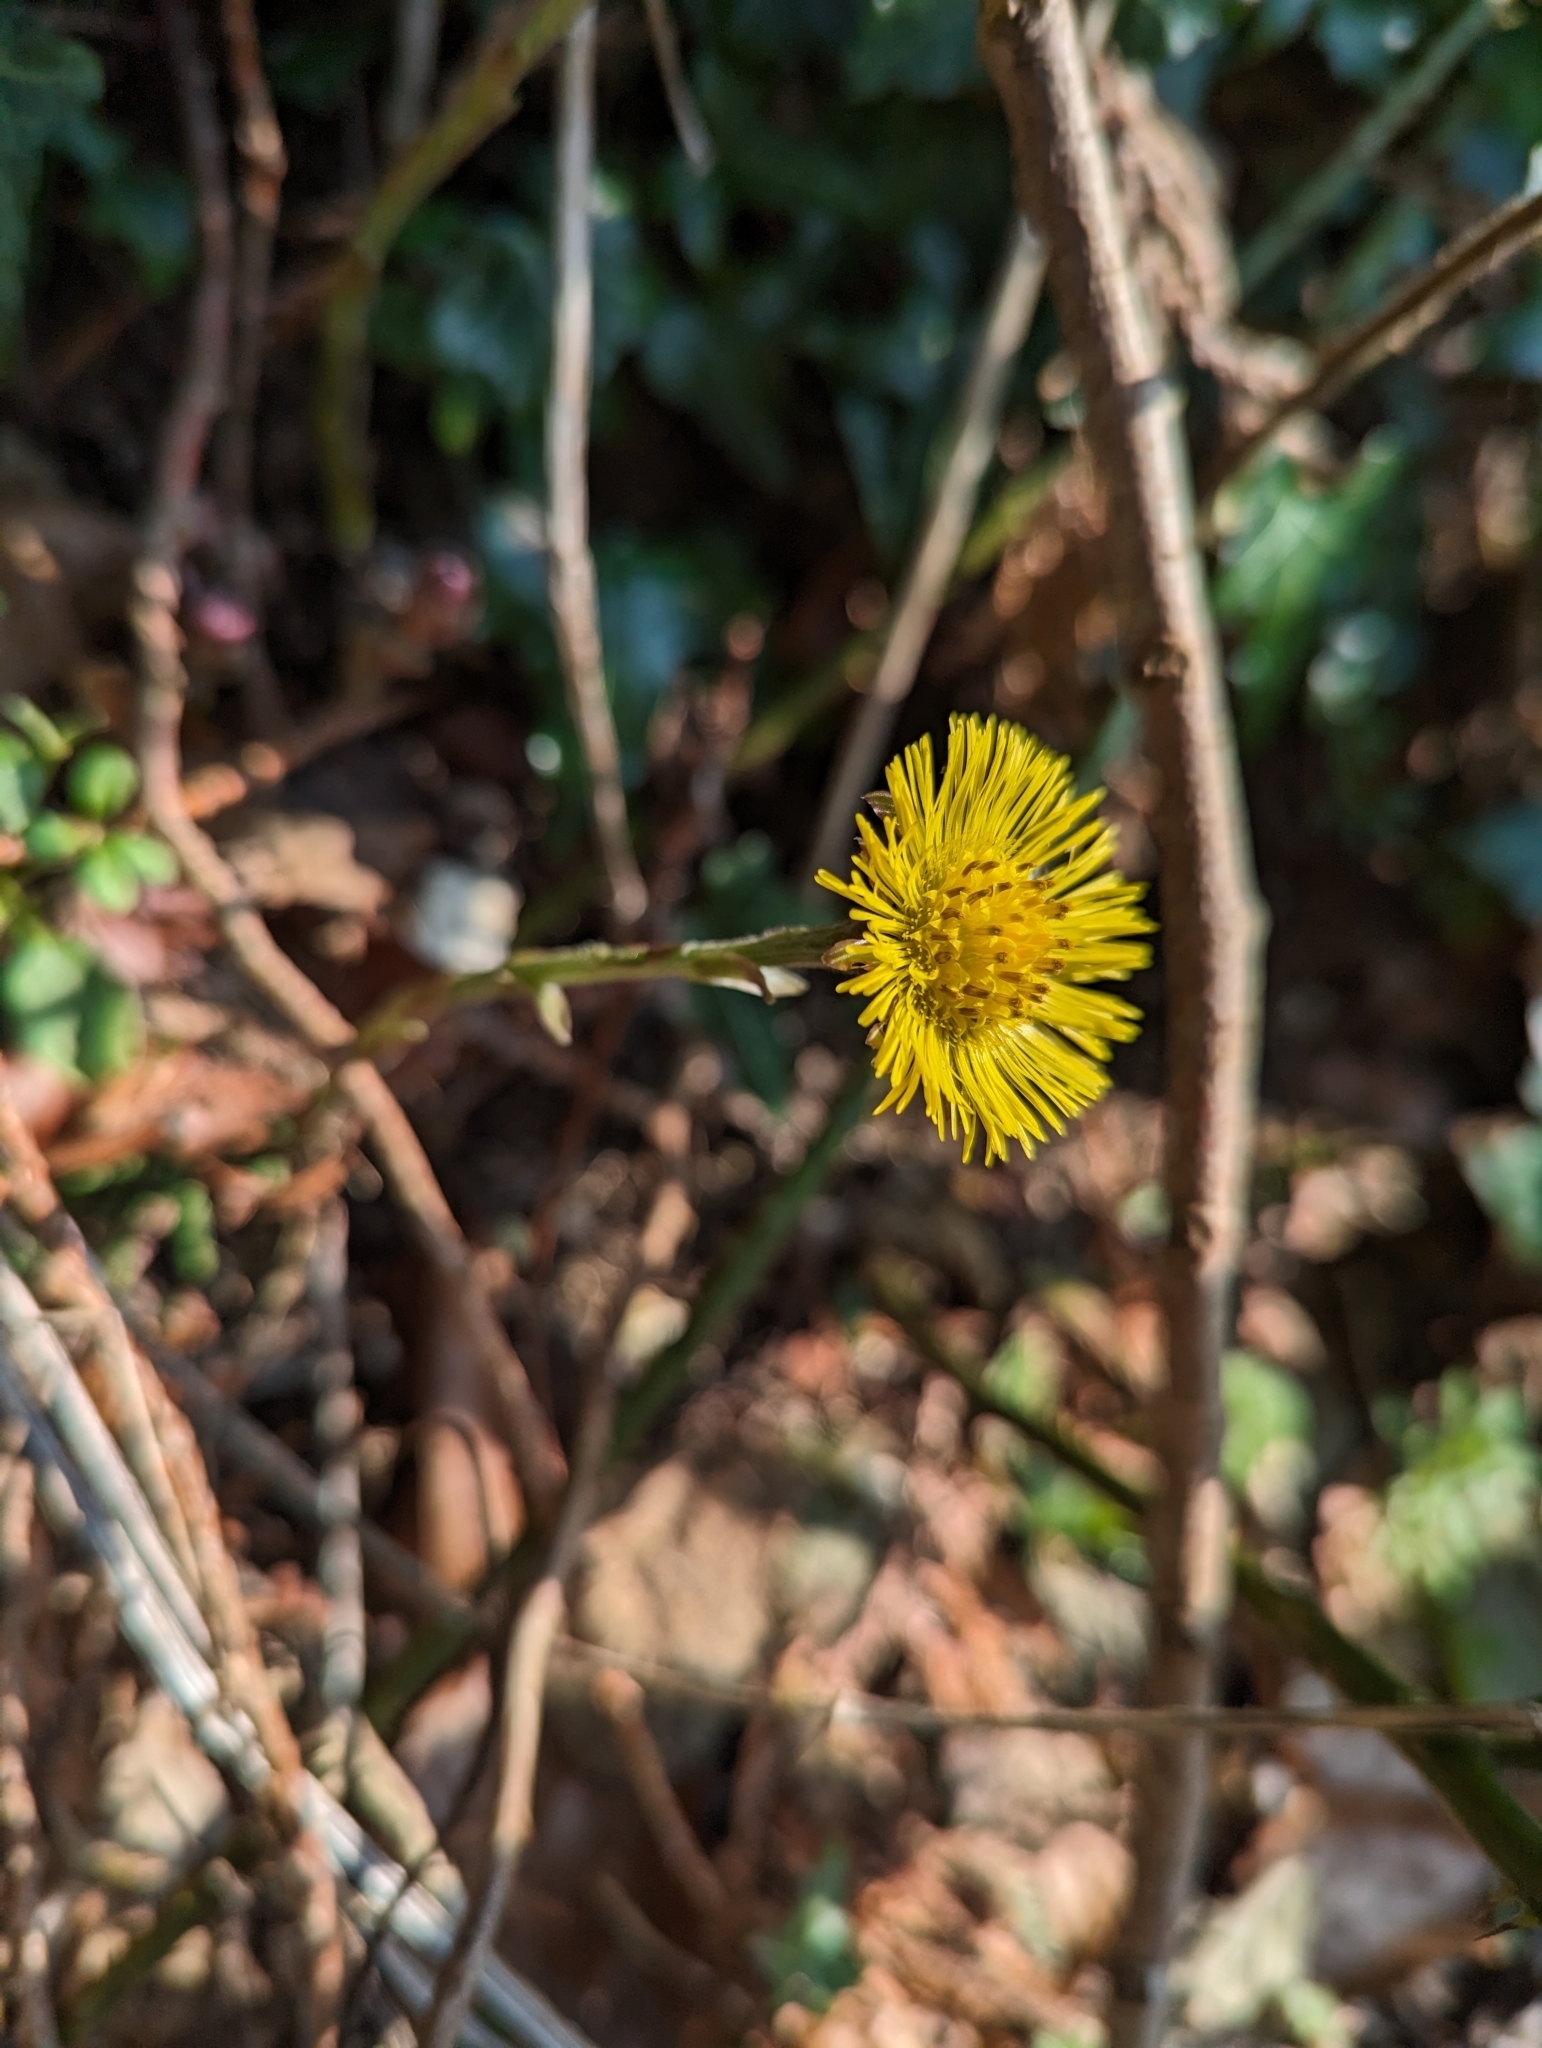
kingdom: Plantae
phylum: Tracheophyta
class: Magnoliopsida
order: Asterales
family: Asteraceae
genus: Tussilago
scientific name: Tussilago farfara
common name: Coltsfoot
